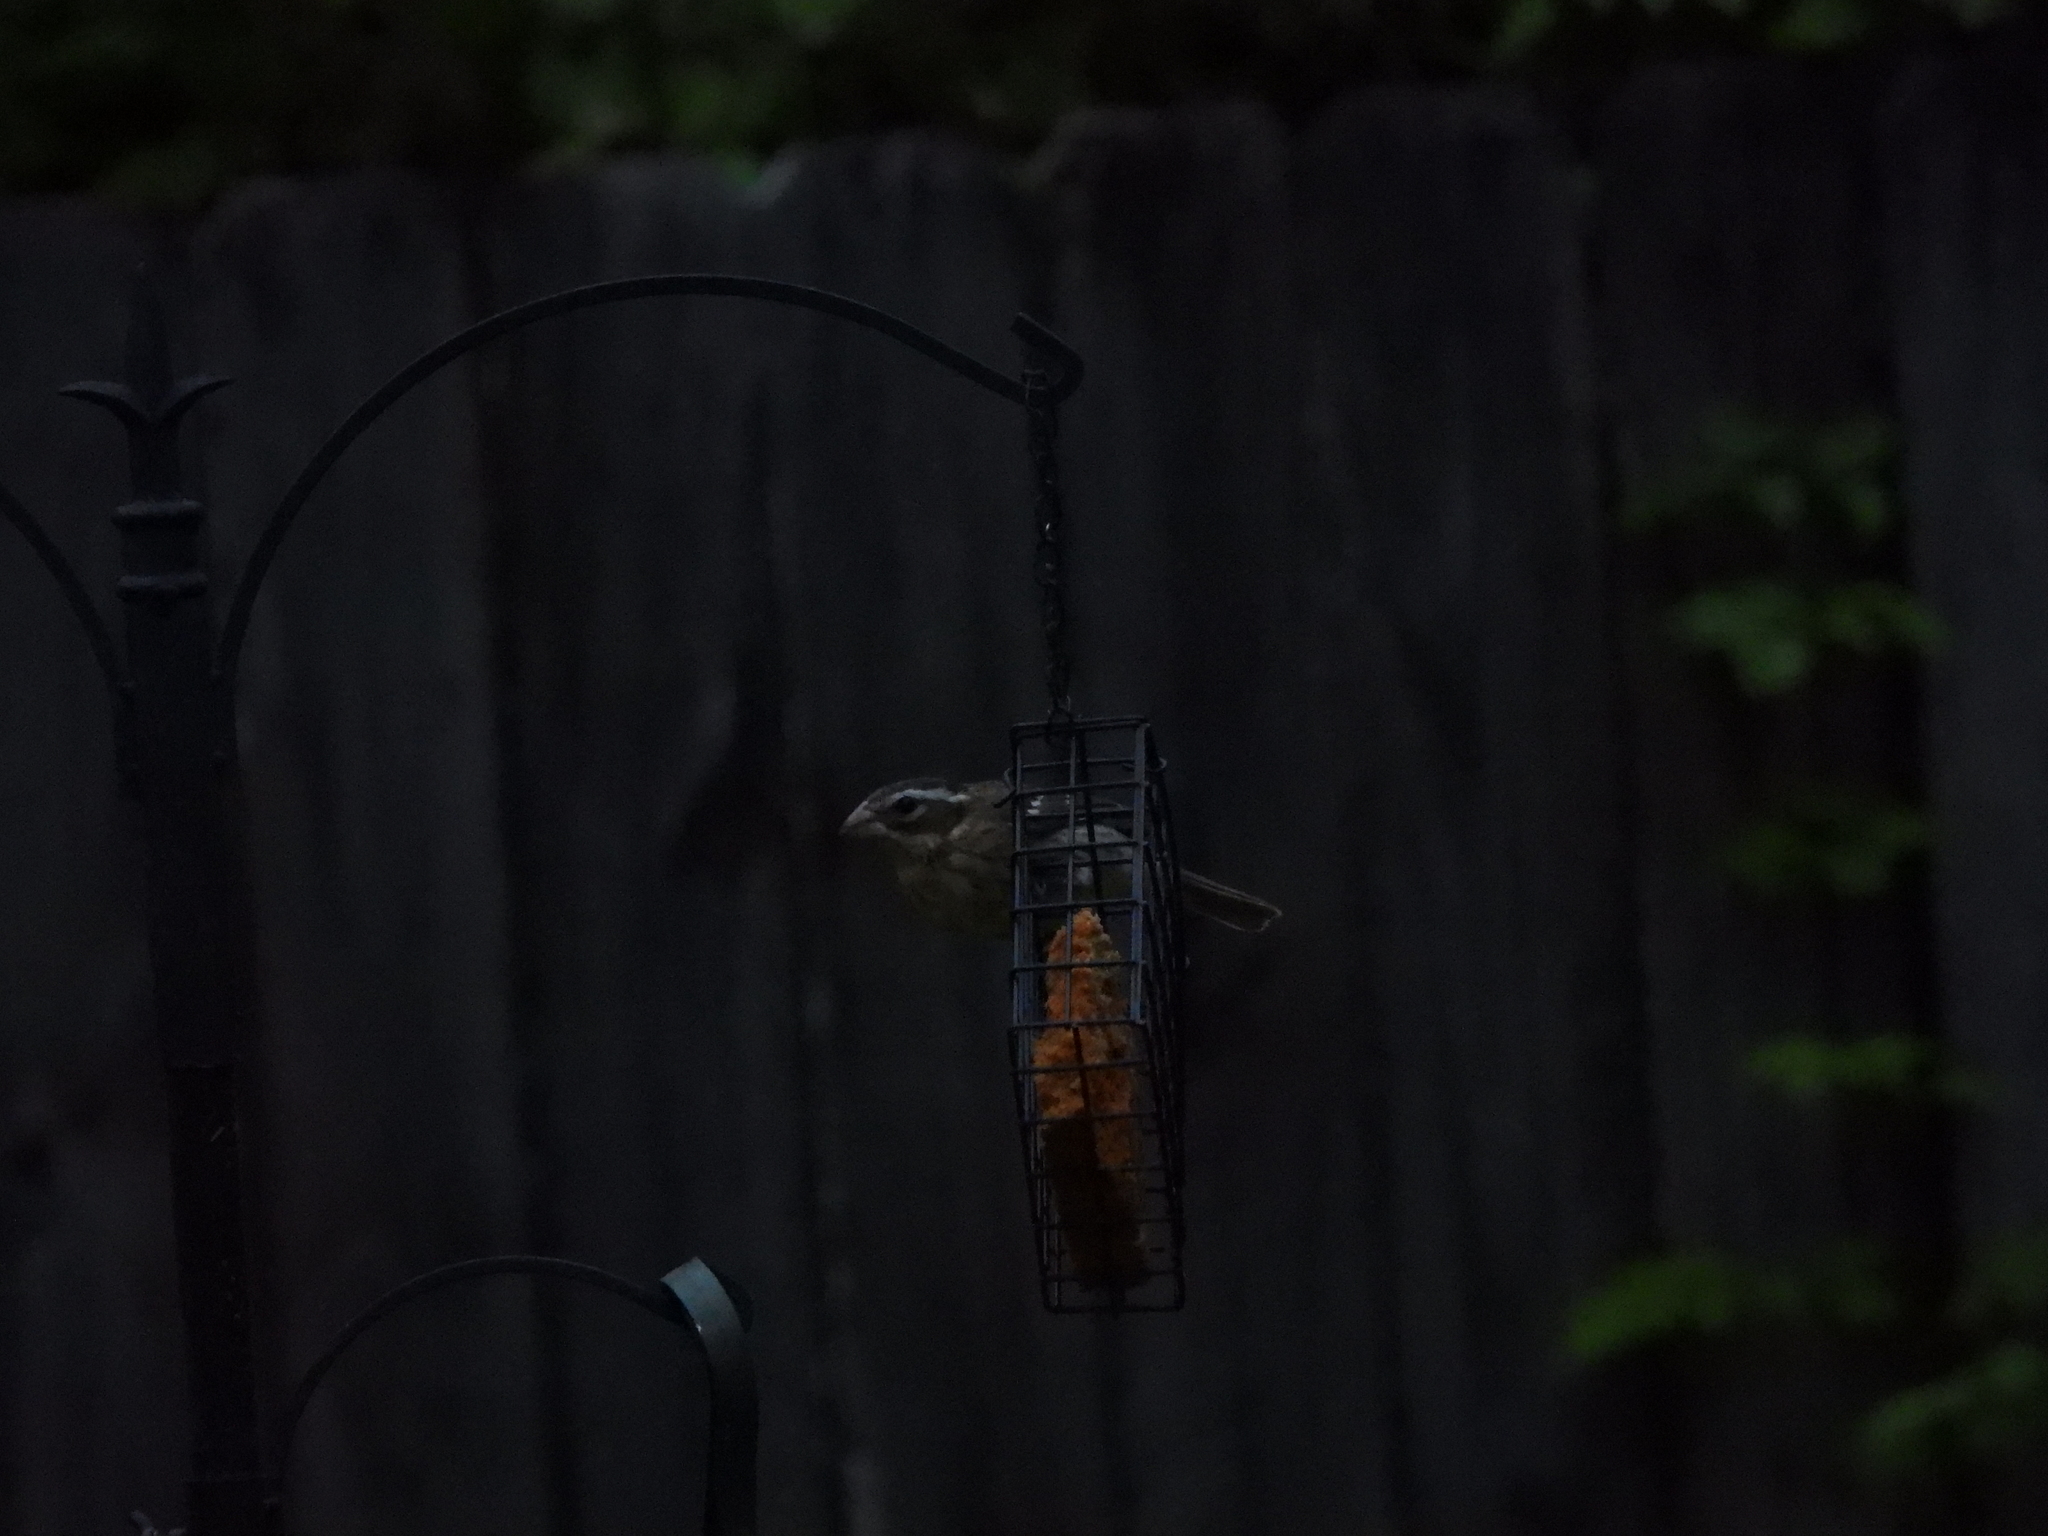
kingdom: Animalia
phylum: Chordata
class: Aves
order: Passeriformes
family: Cardinalidae
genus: Pheucticus
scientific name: Pheucticus ludovicianus
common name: Rose-breasted grosbeak
